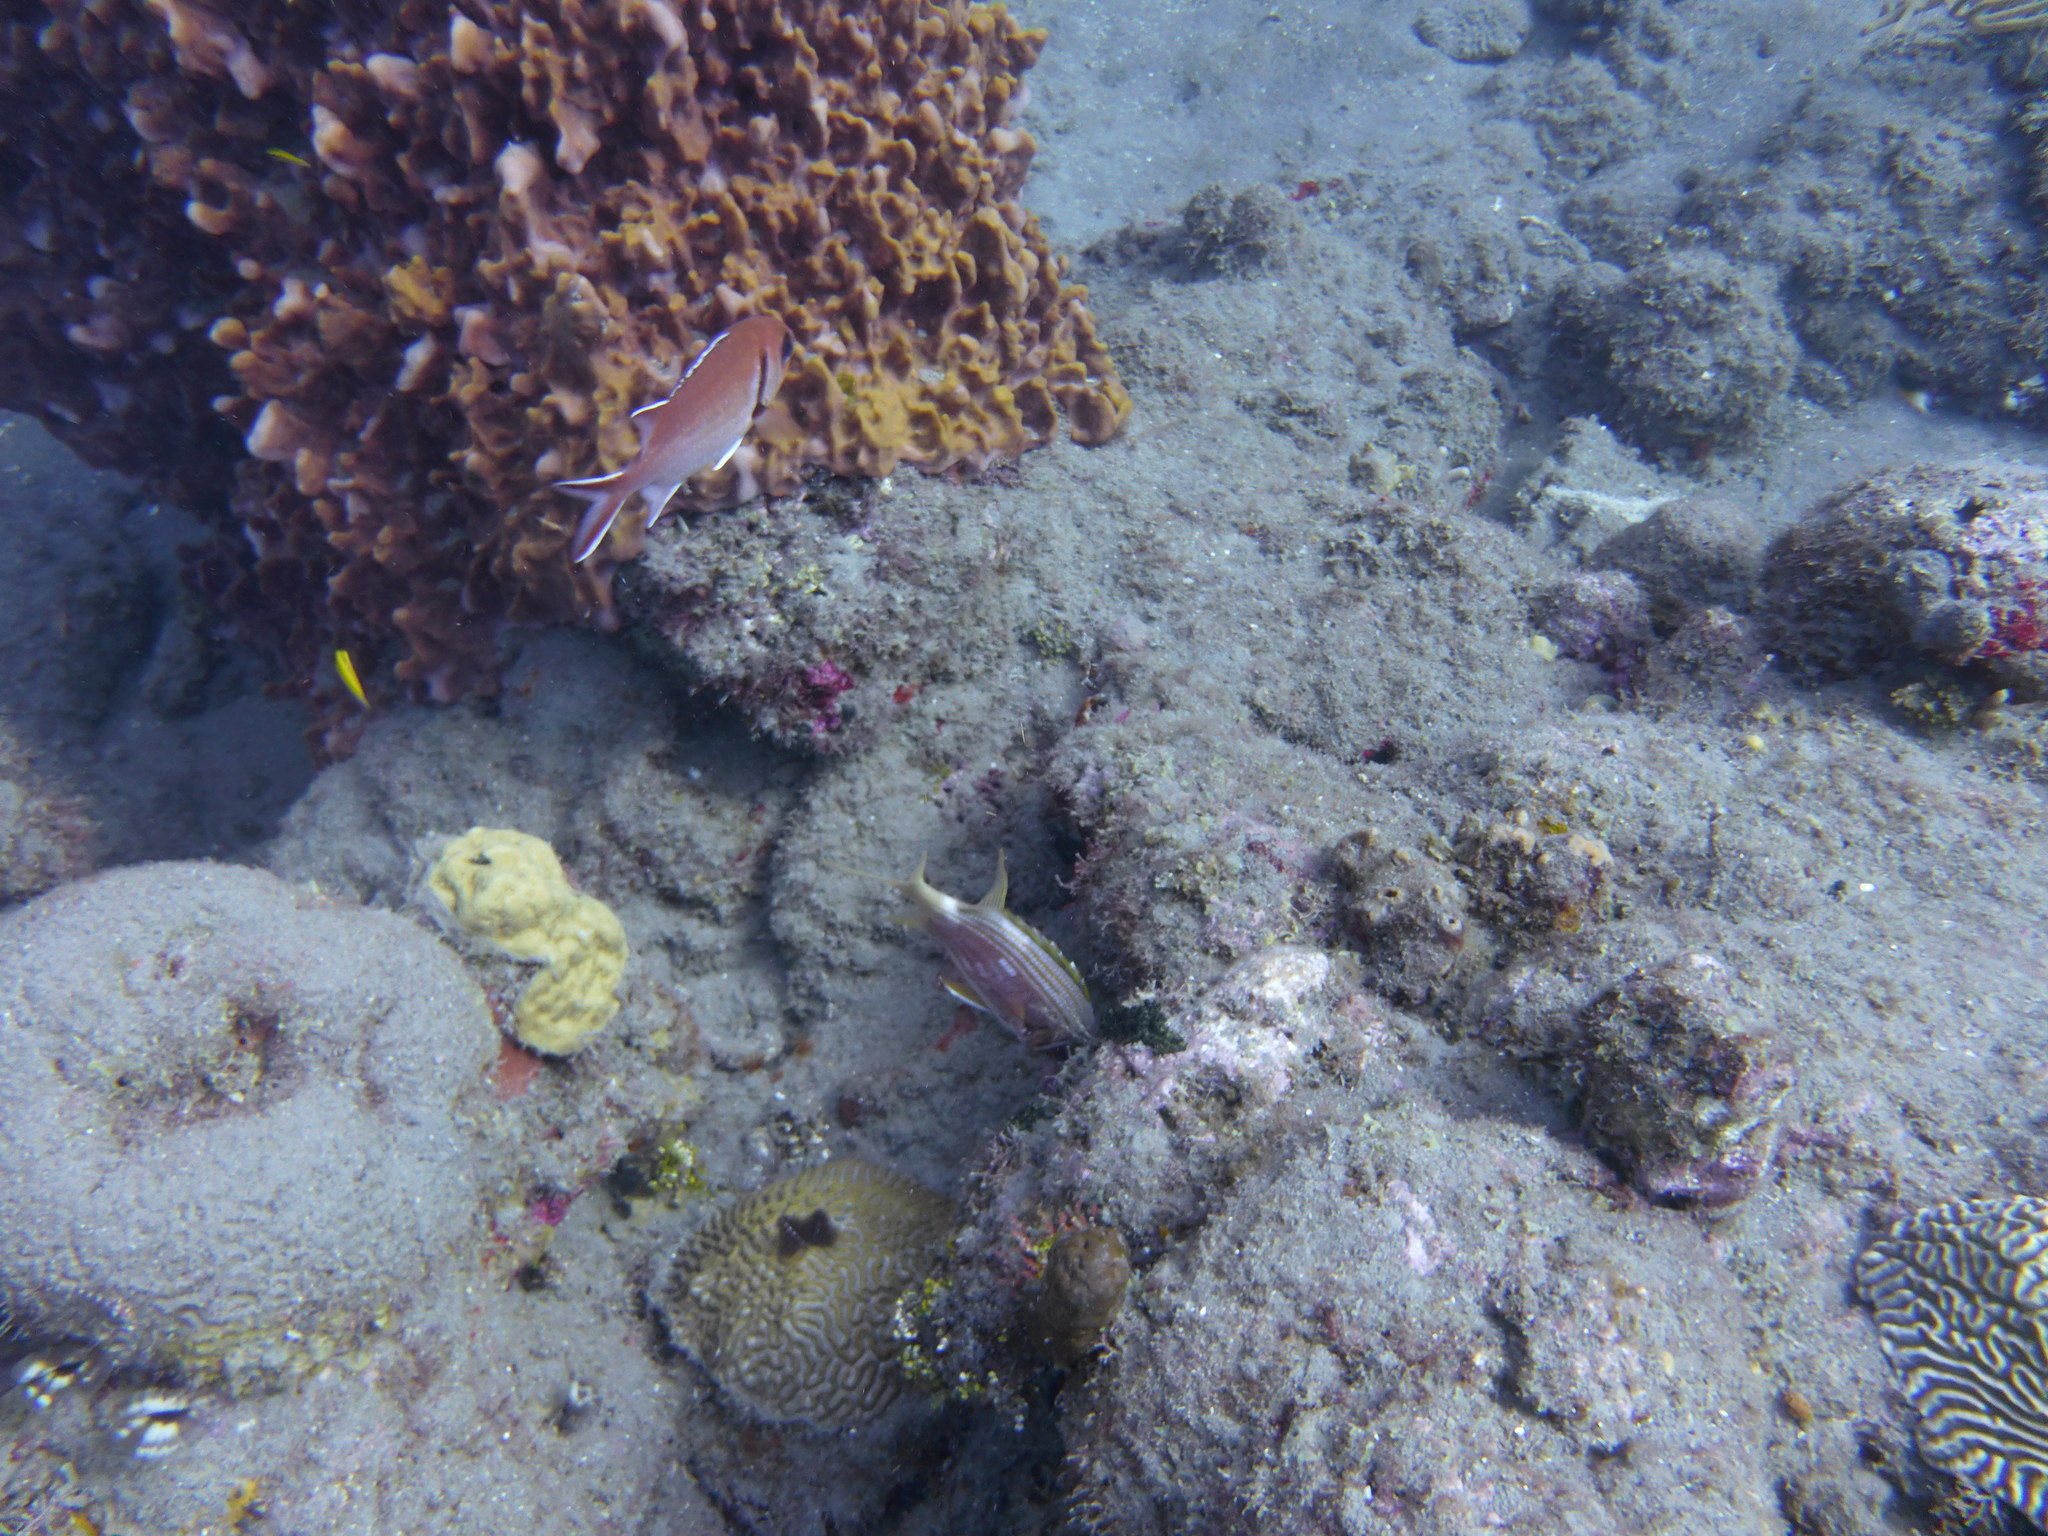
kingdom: Animalia
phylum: Chordata
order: Beryciformes
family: Holocentridae
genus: Holocentrus
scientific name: Holocentrus rufus
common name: Longspine squirrelfish
